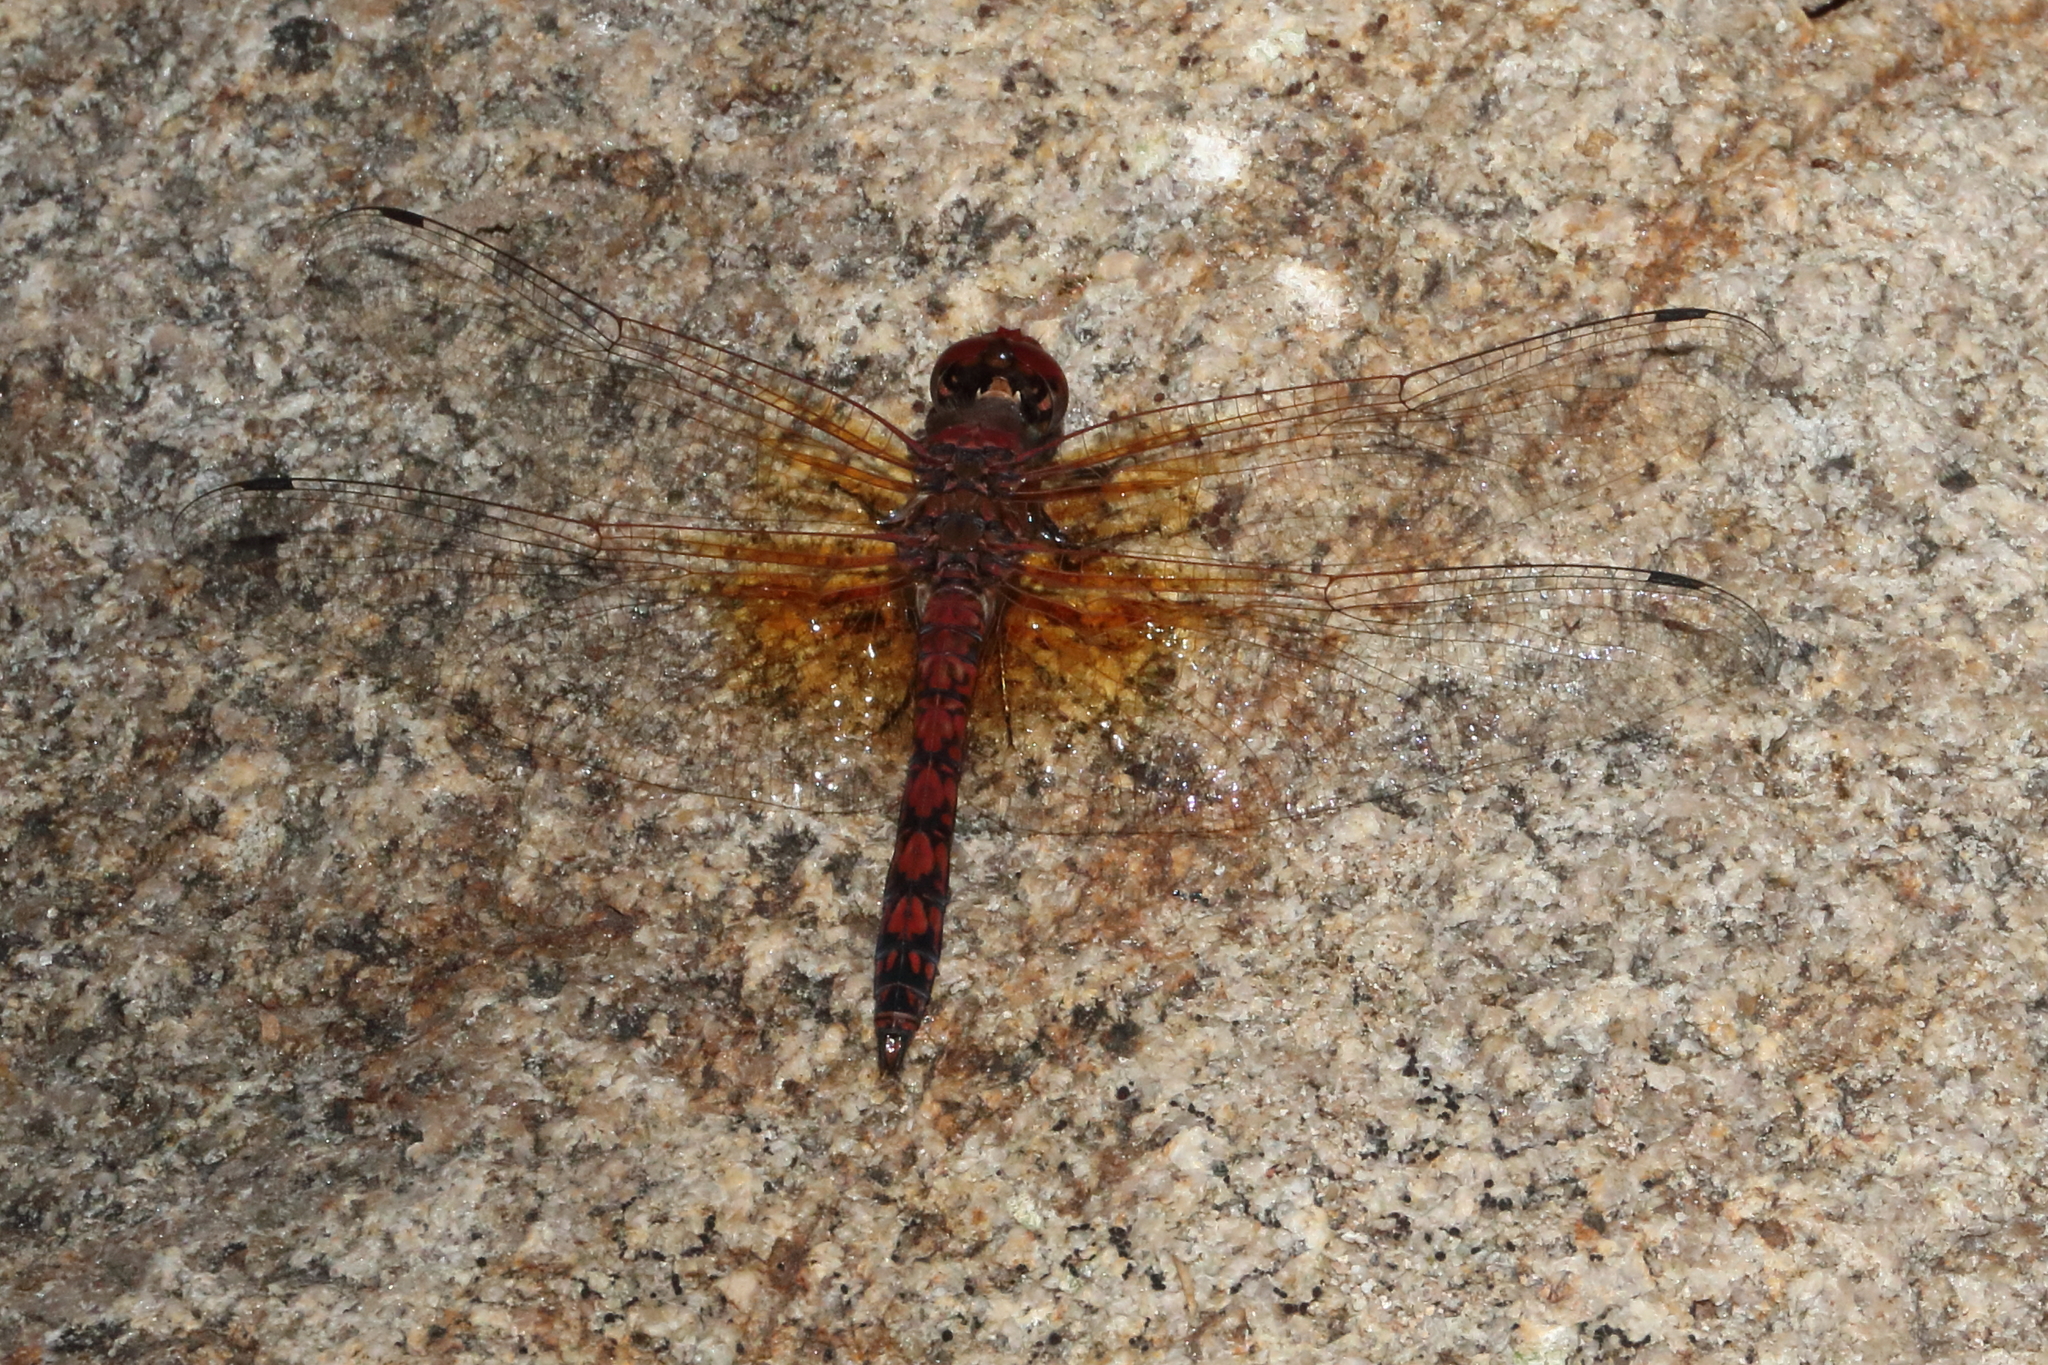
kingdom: Animalia
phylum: Arthropoda
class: Insecta
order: Odonata
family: Libellulidae
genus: Paltothemis
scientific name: Paltothemis lineatipes
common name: Red rock skimmer
